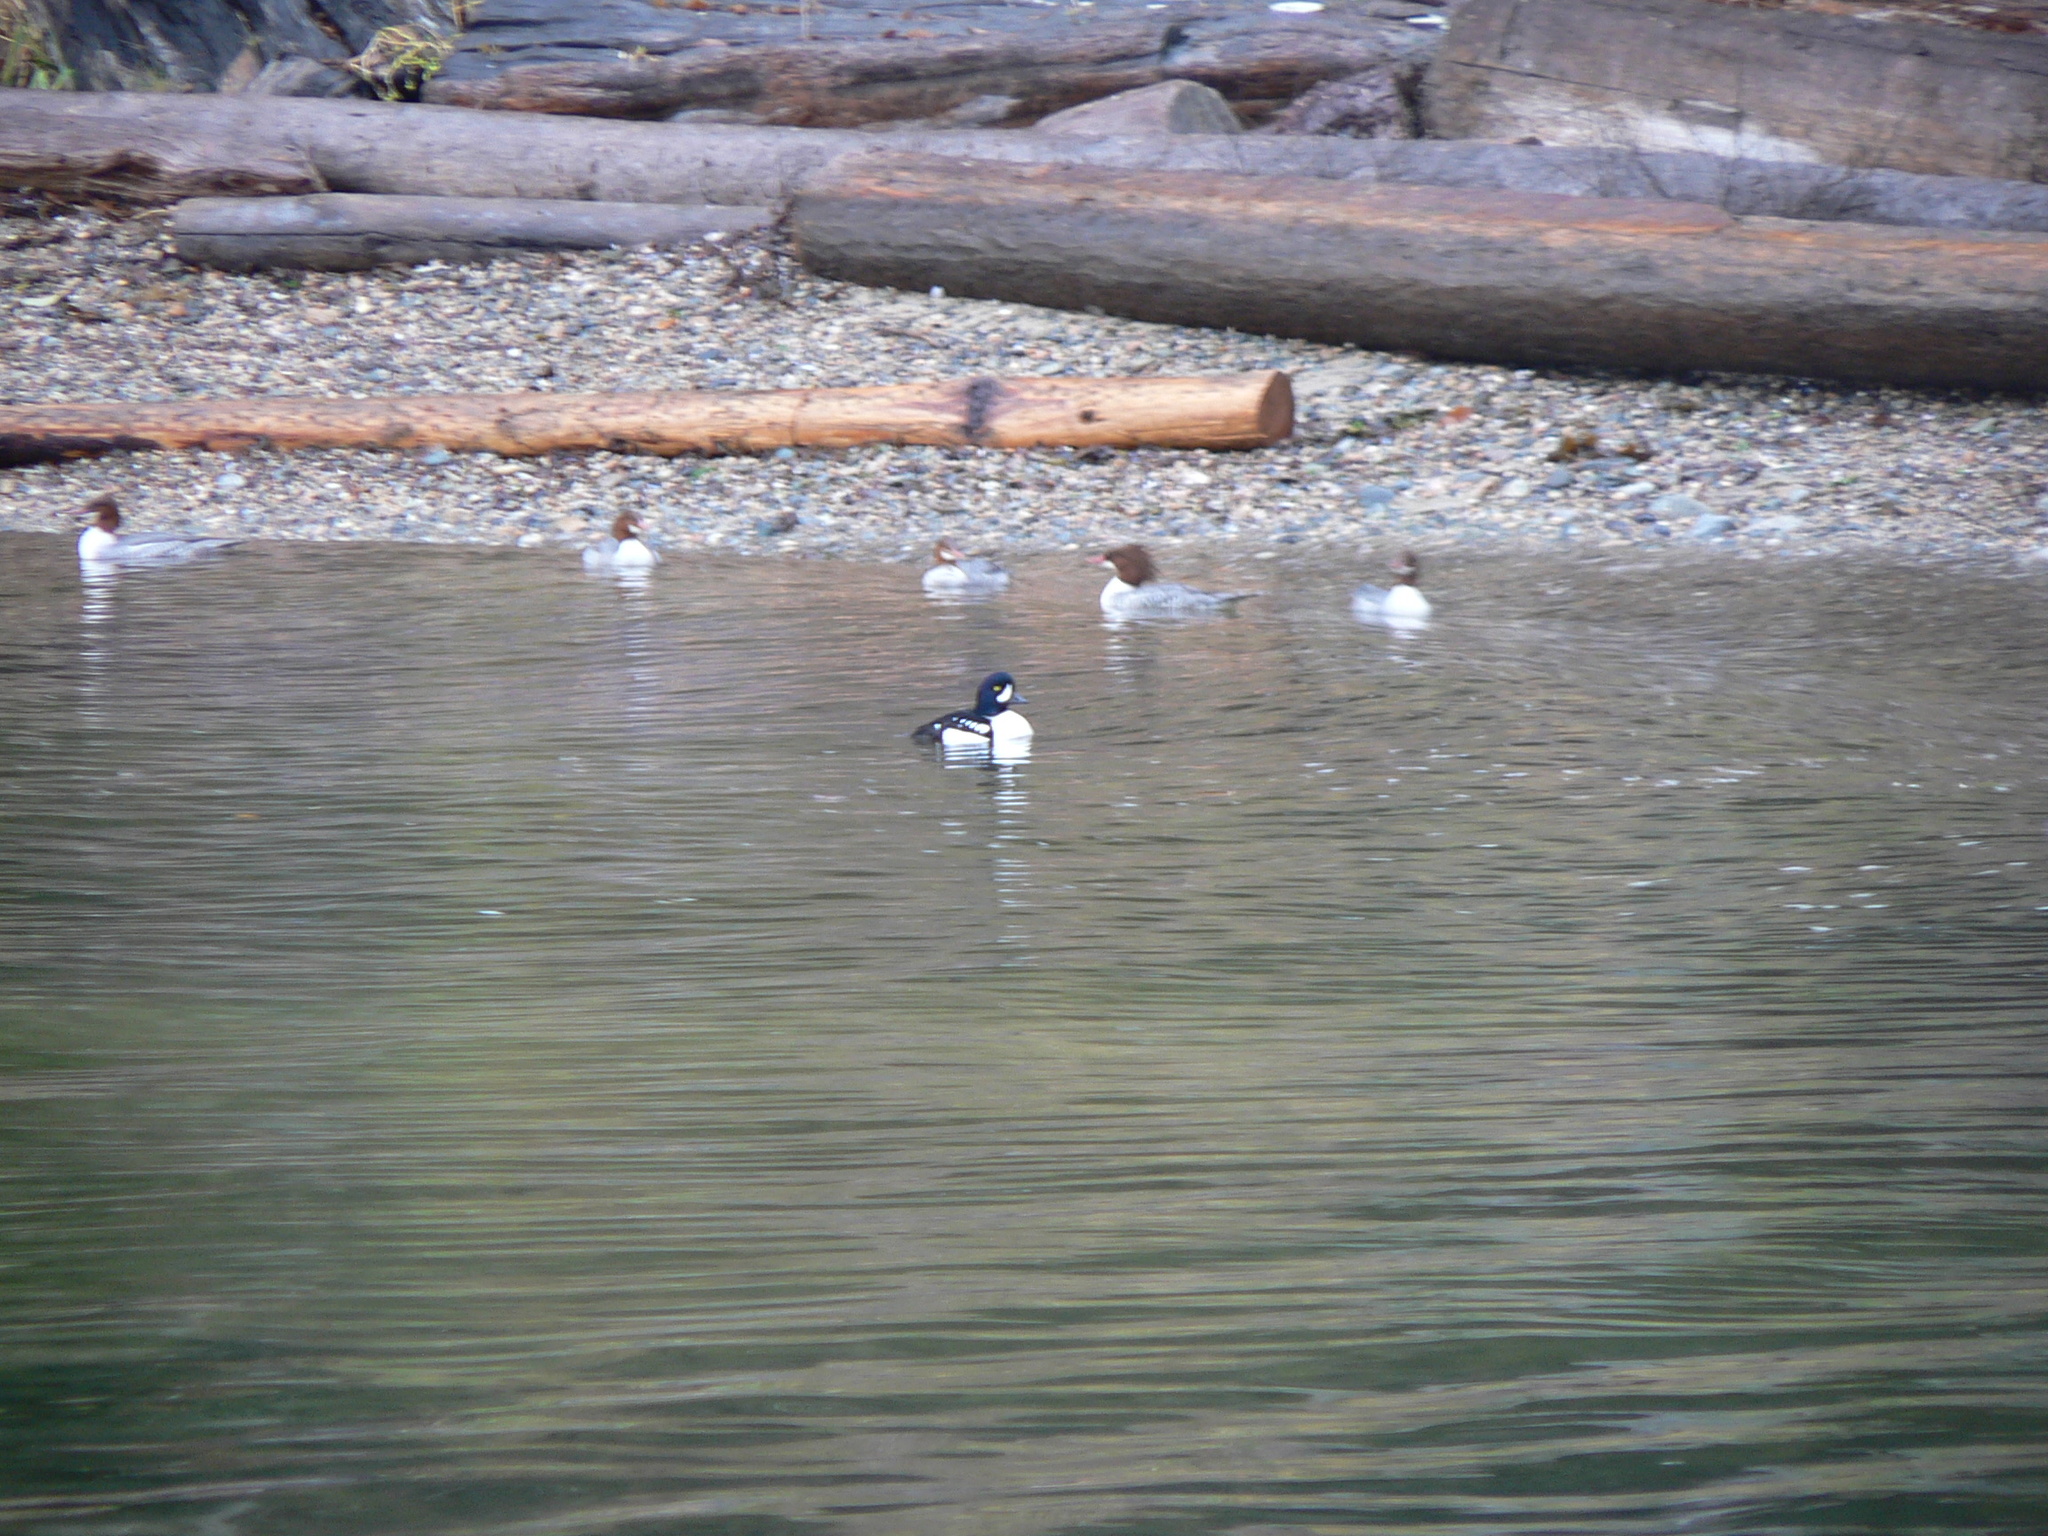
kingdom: Animalia
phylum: Chordata
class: Aves
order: Anseriformes
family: Anatidae
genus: Bucephala
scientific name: Bucephala islandica
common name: Barrow's goldeneye
